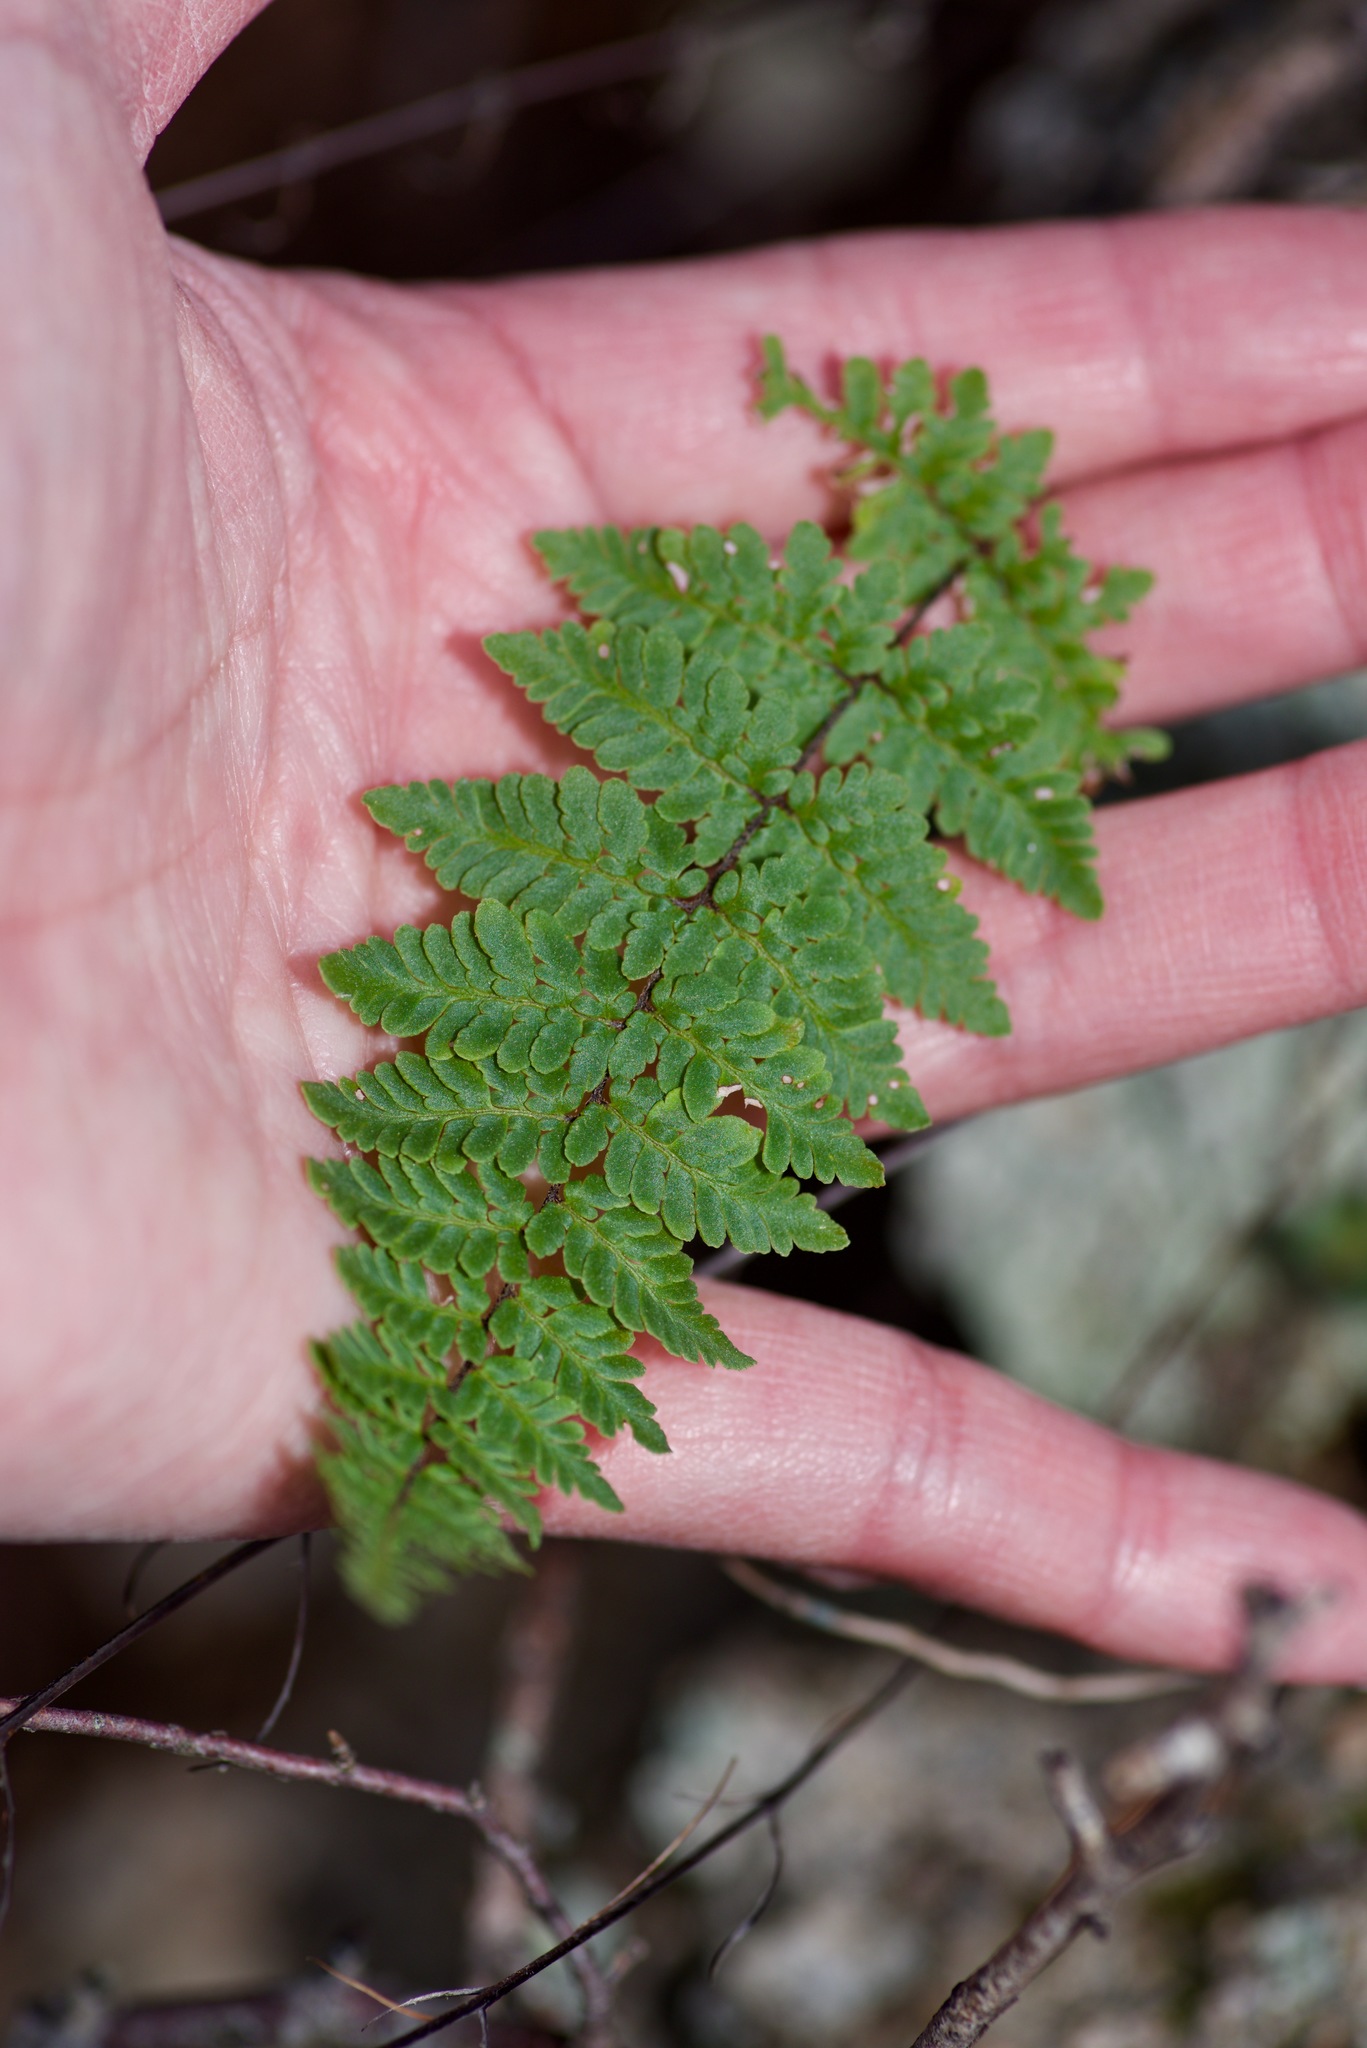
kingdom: Plantae
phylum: Tracheophyta
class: Polypodiopsida
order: Polypodiales
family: Pteridaceae
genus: Myriopteris
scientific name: Myriopteris alabamensis
